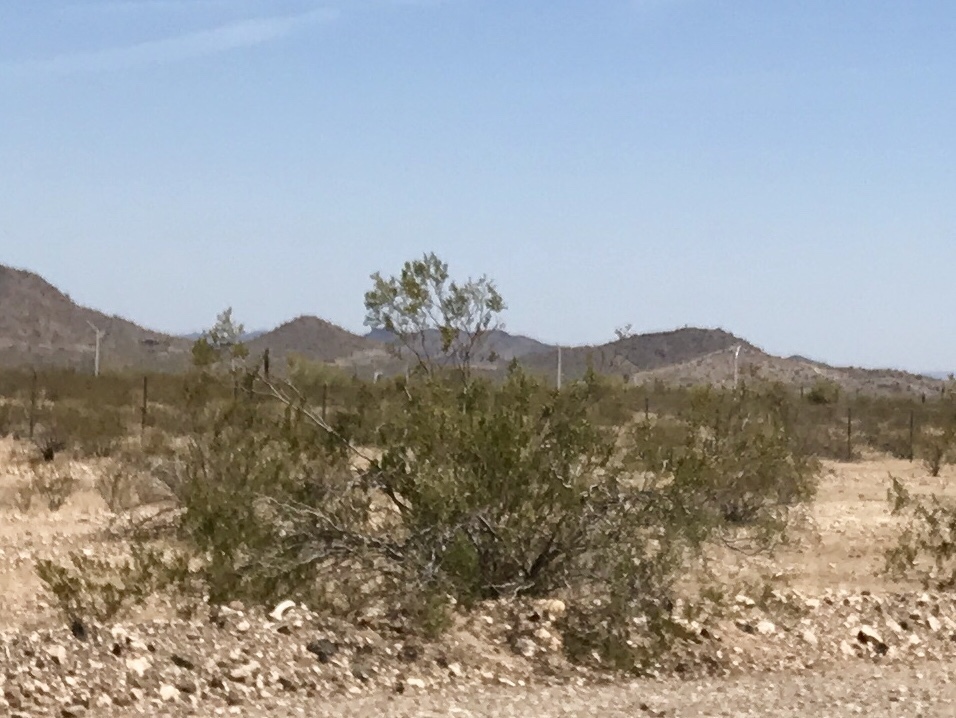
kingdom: Plantae
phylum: Tracheophyta
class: Magnoliopsida
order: Zygophyllales
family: Zygophyllaceae
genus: Larrea
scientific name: Larrea tridentata
